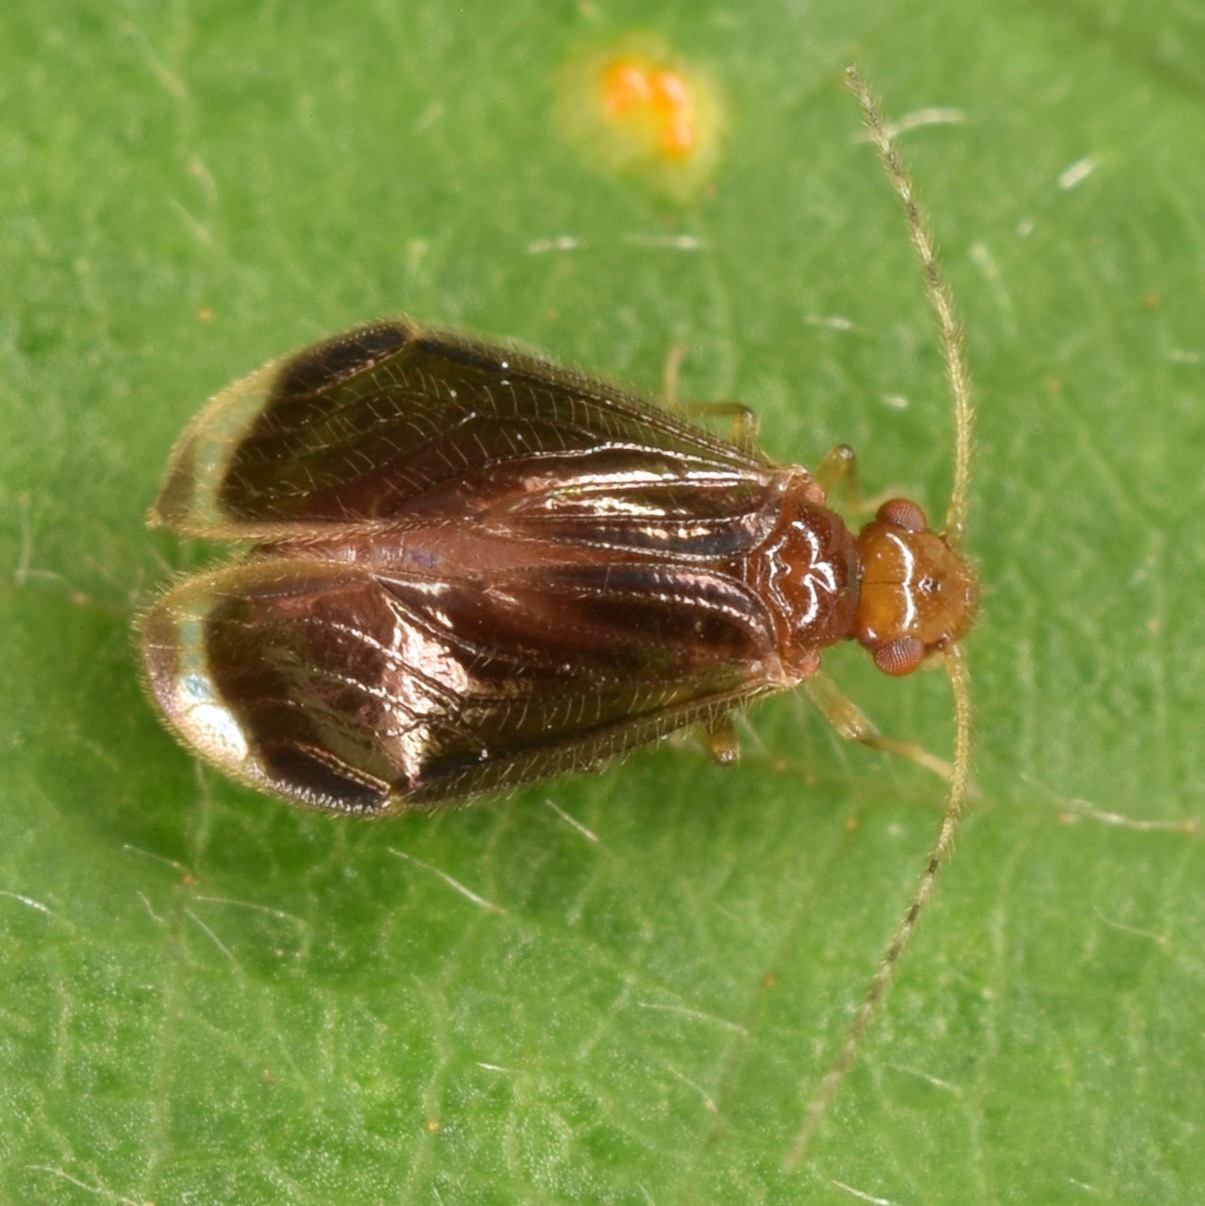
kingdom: Animalia
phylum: Arthropoda
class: Insecta
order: Psocodea
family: Amphipsocidae
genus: Polypsocus
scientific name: Polypsocus corruptus
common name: Corrupt barklouse
